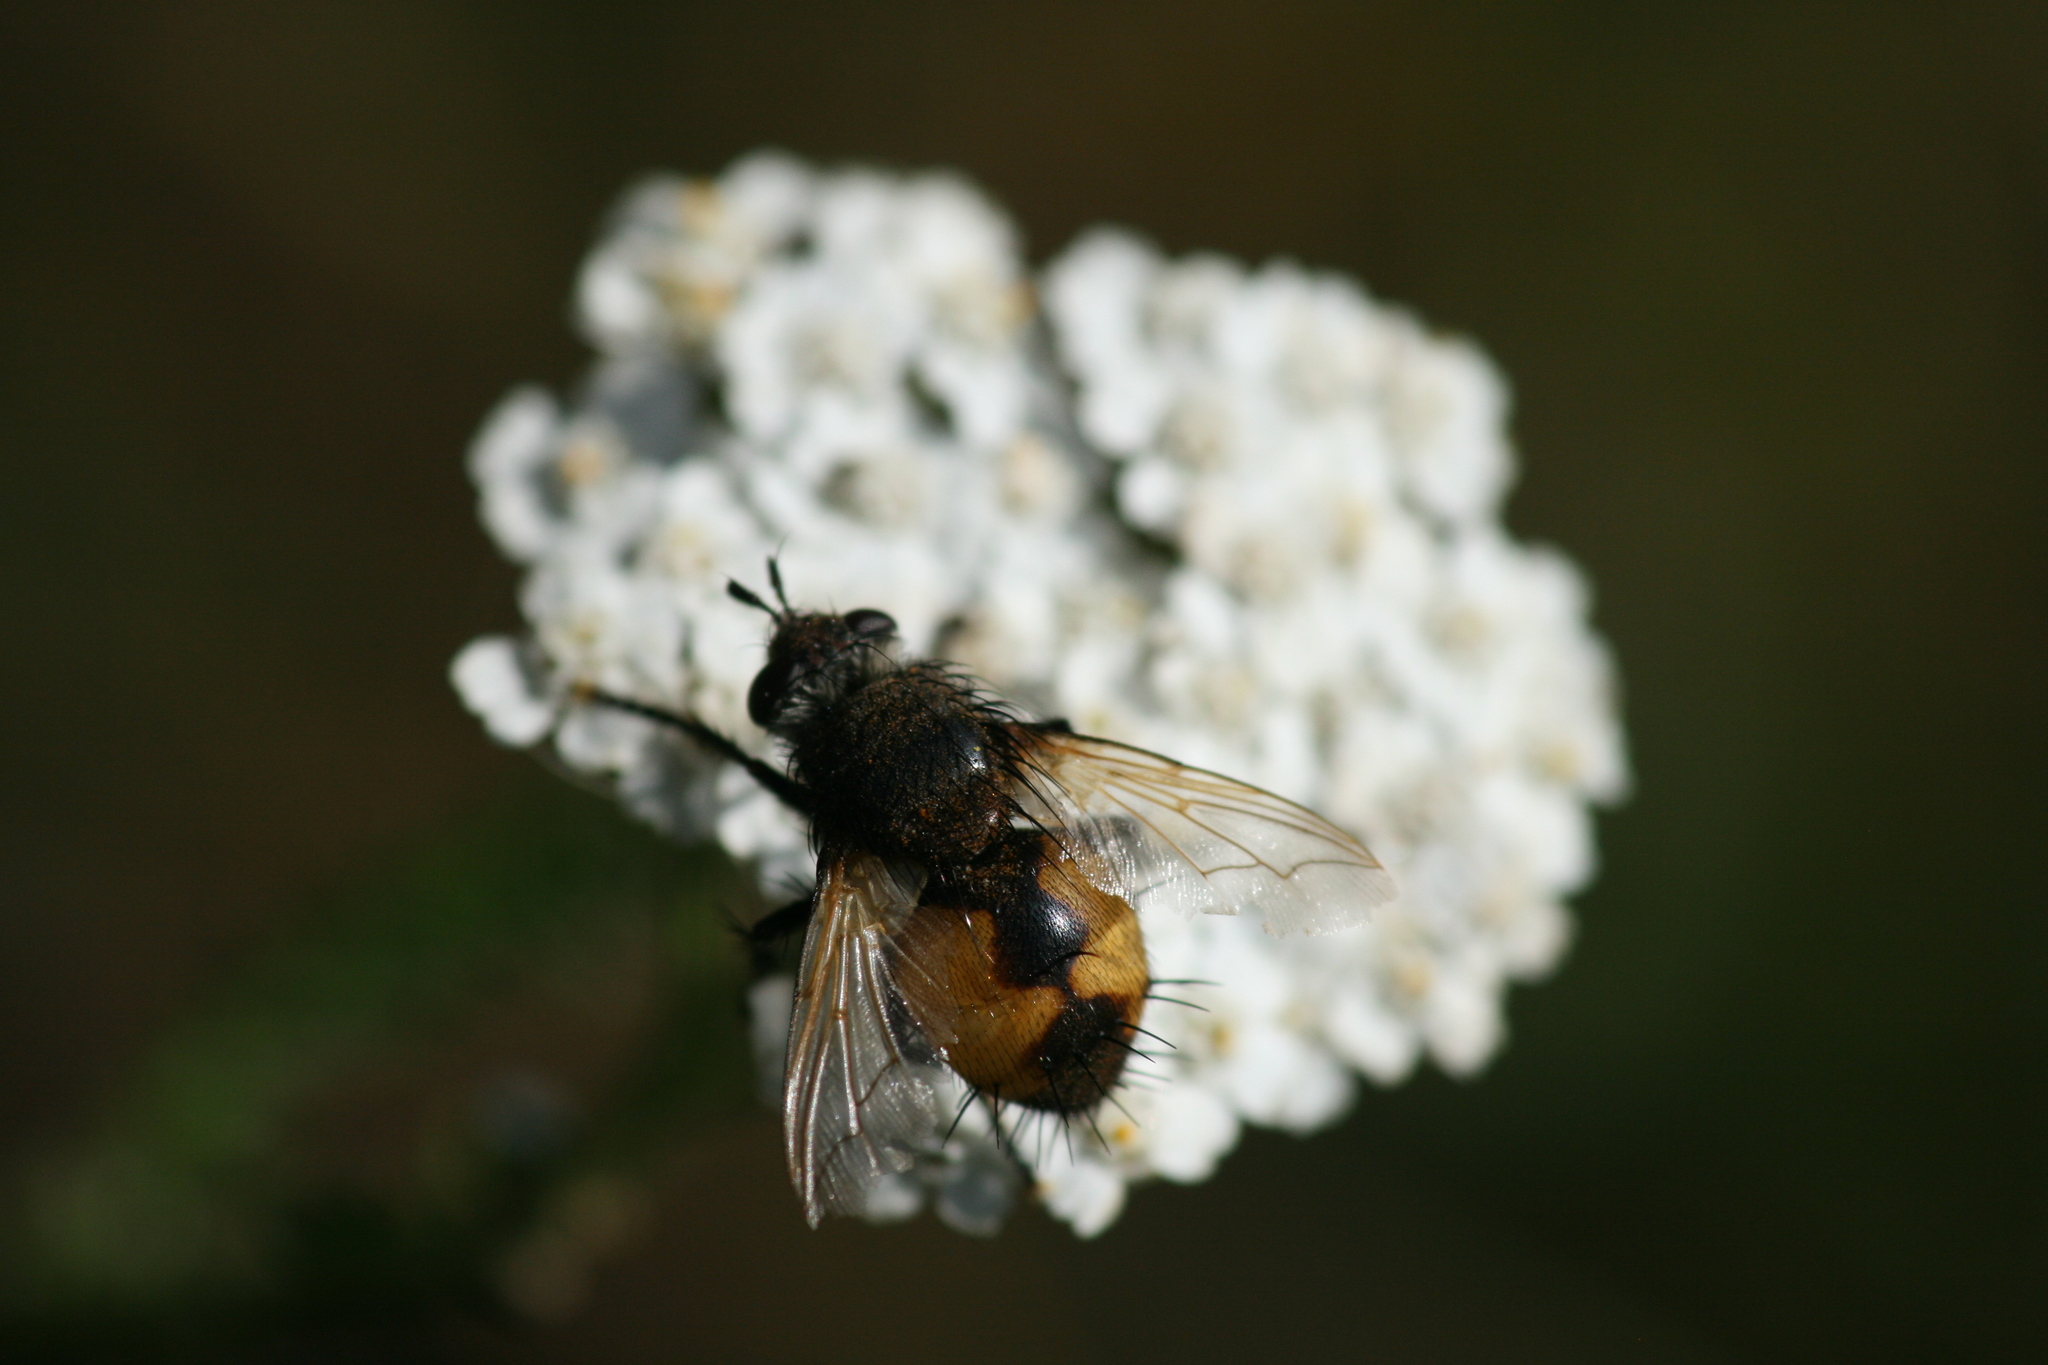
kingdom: Animalia
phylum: Arthropoda
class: Insecta
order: Diptera
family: Tachinidae
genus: Nowickia
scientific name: Nowickia ferox
